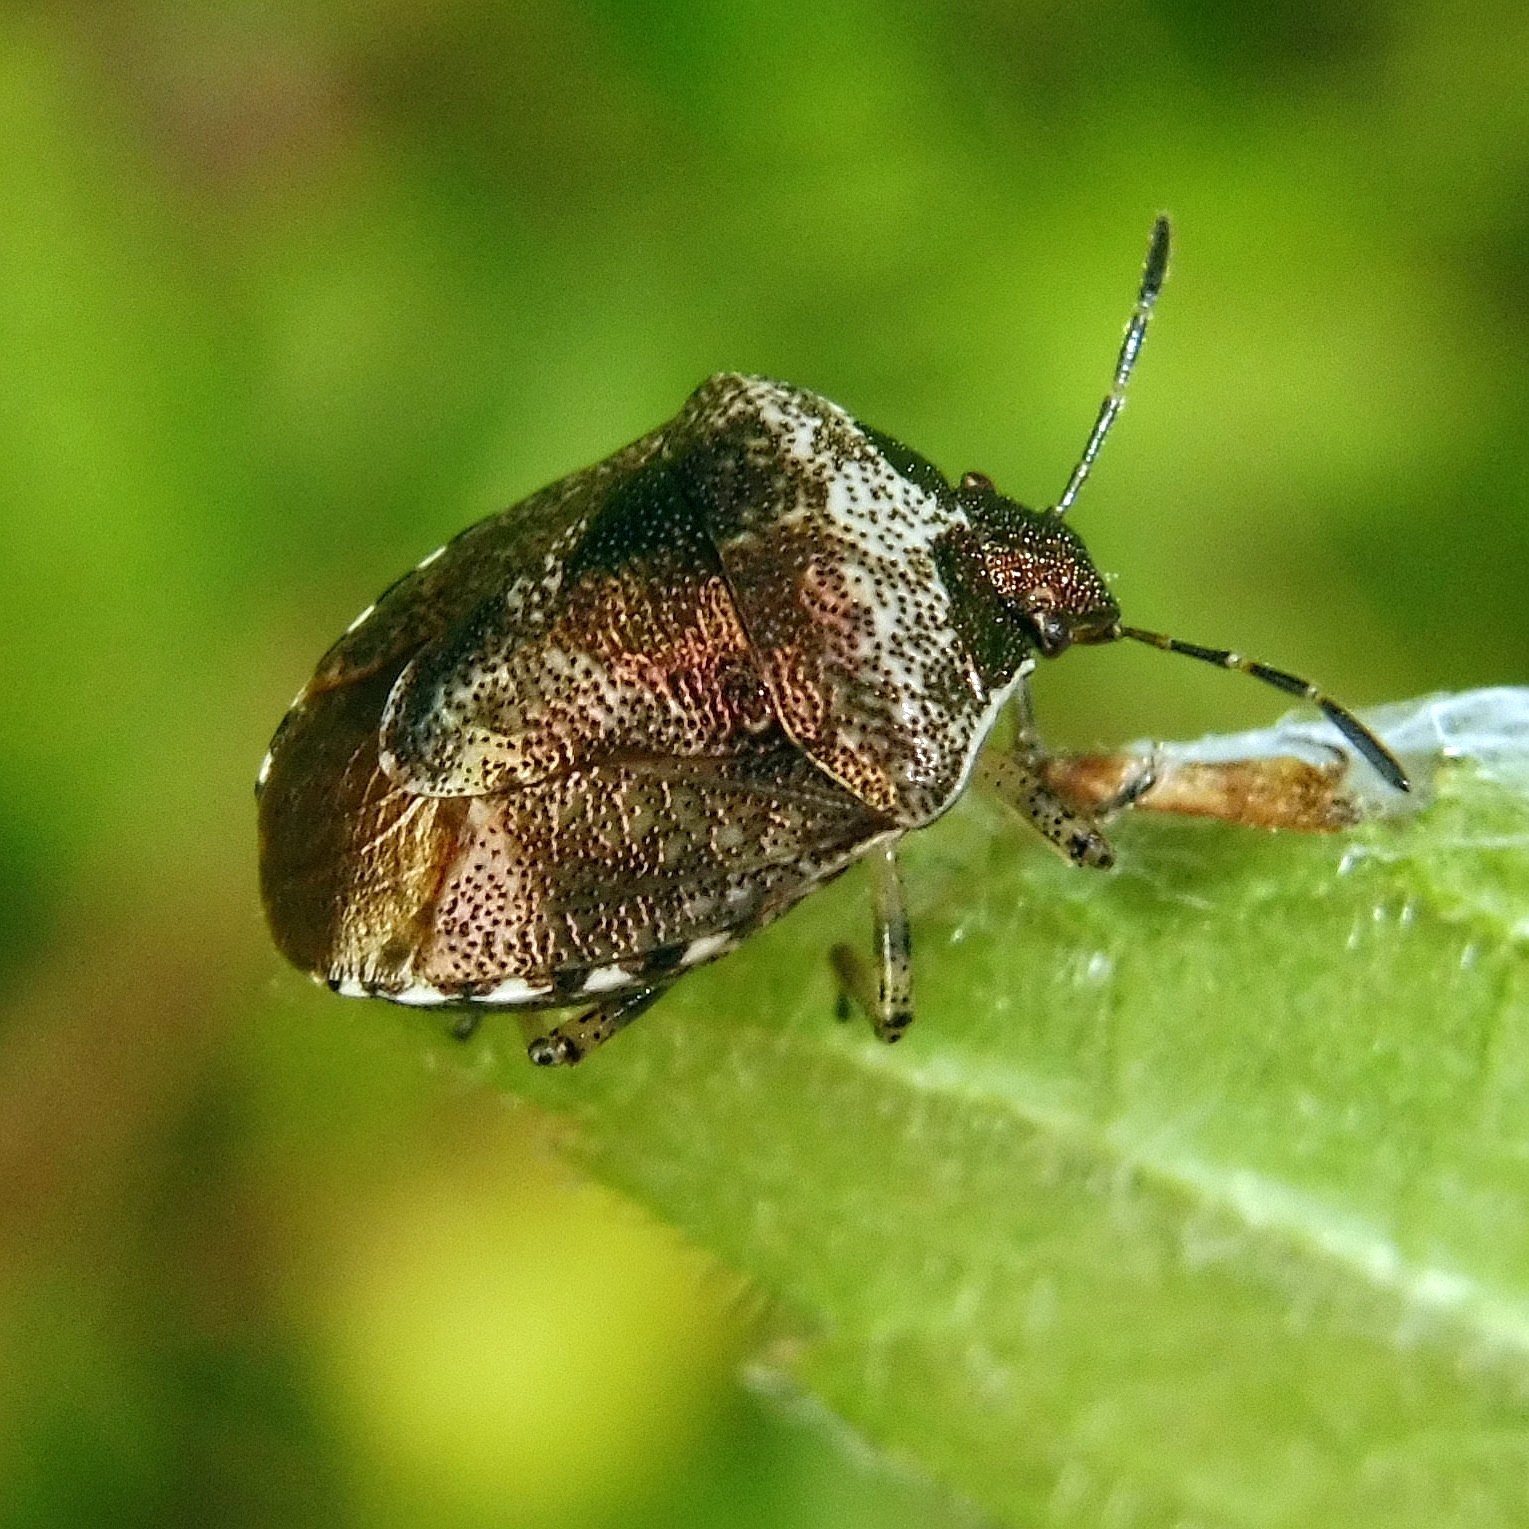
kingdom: Animalia
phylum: Arthropoda
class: Insecta
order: Hemiptera
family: Pentatomidae
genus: Eysarcoris
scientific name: Eysarcoris venustissimus
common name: Woundwort shieldbug
